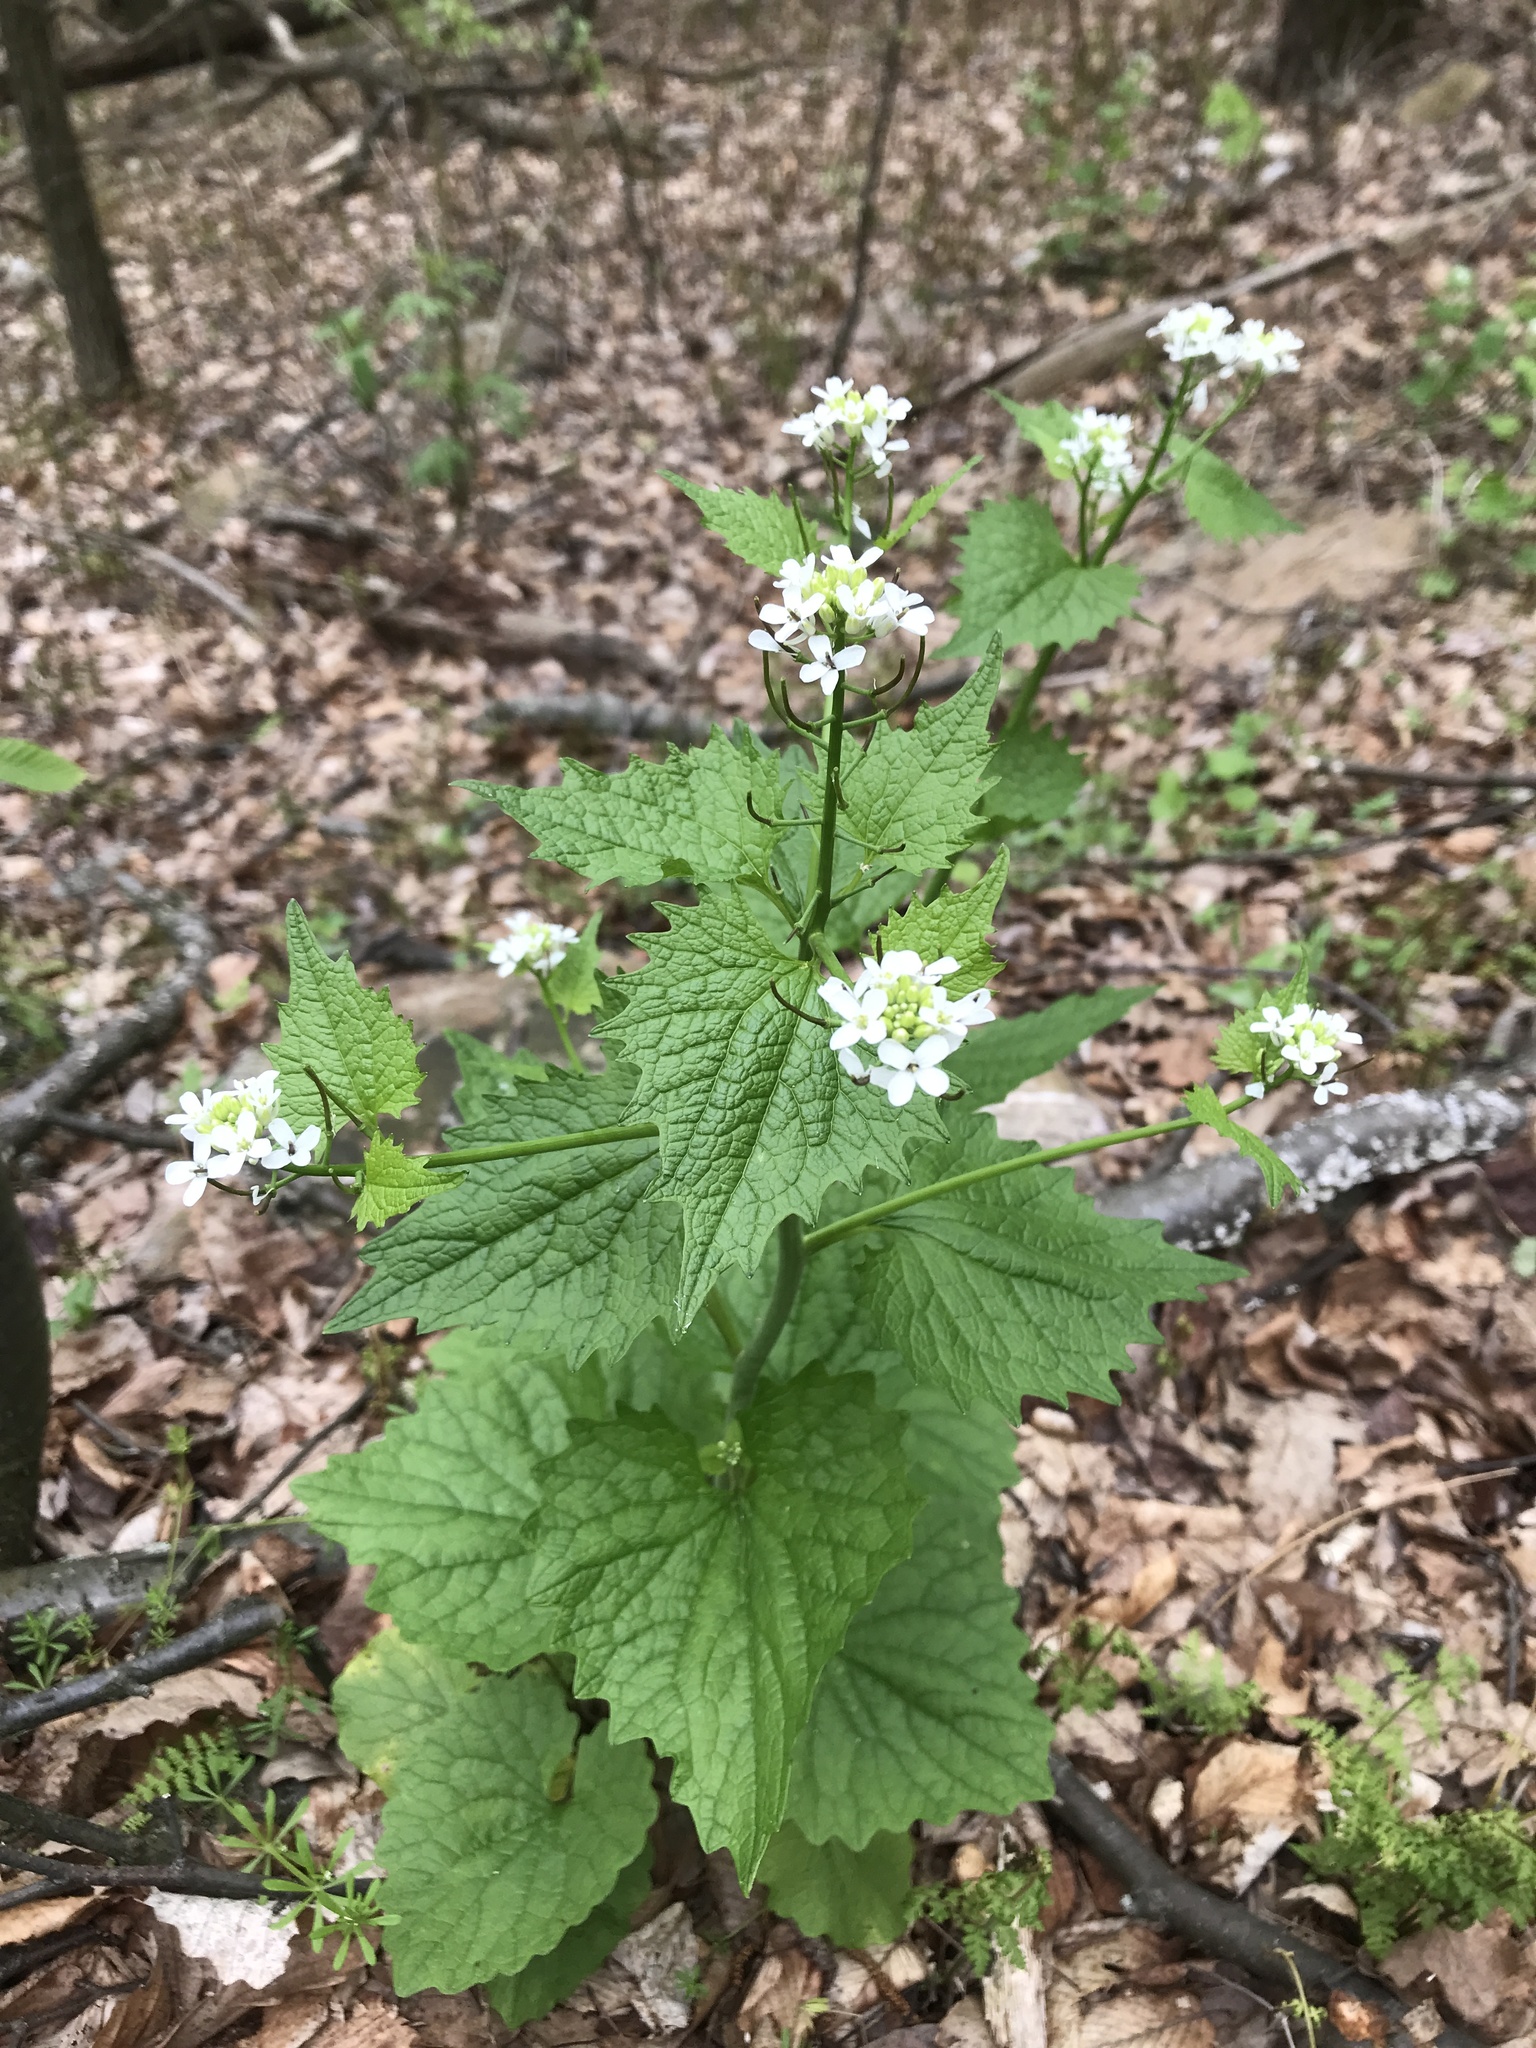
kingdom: Plantae
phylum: Tracheophyta
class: Magnoliopsida
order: Brassicales
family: Brassicaceae
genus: Alliaria
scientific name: Alliaria petiolata
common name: Garlic mustard
